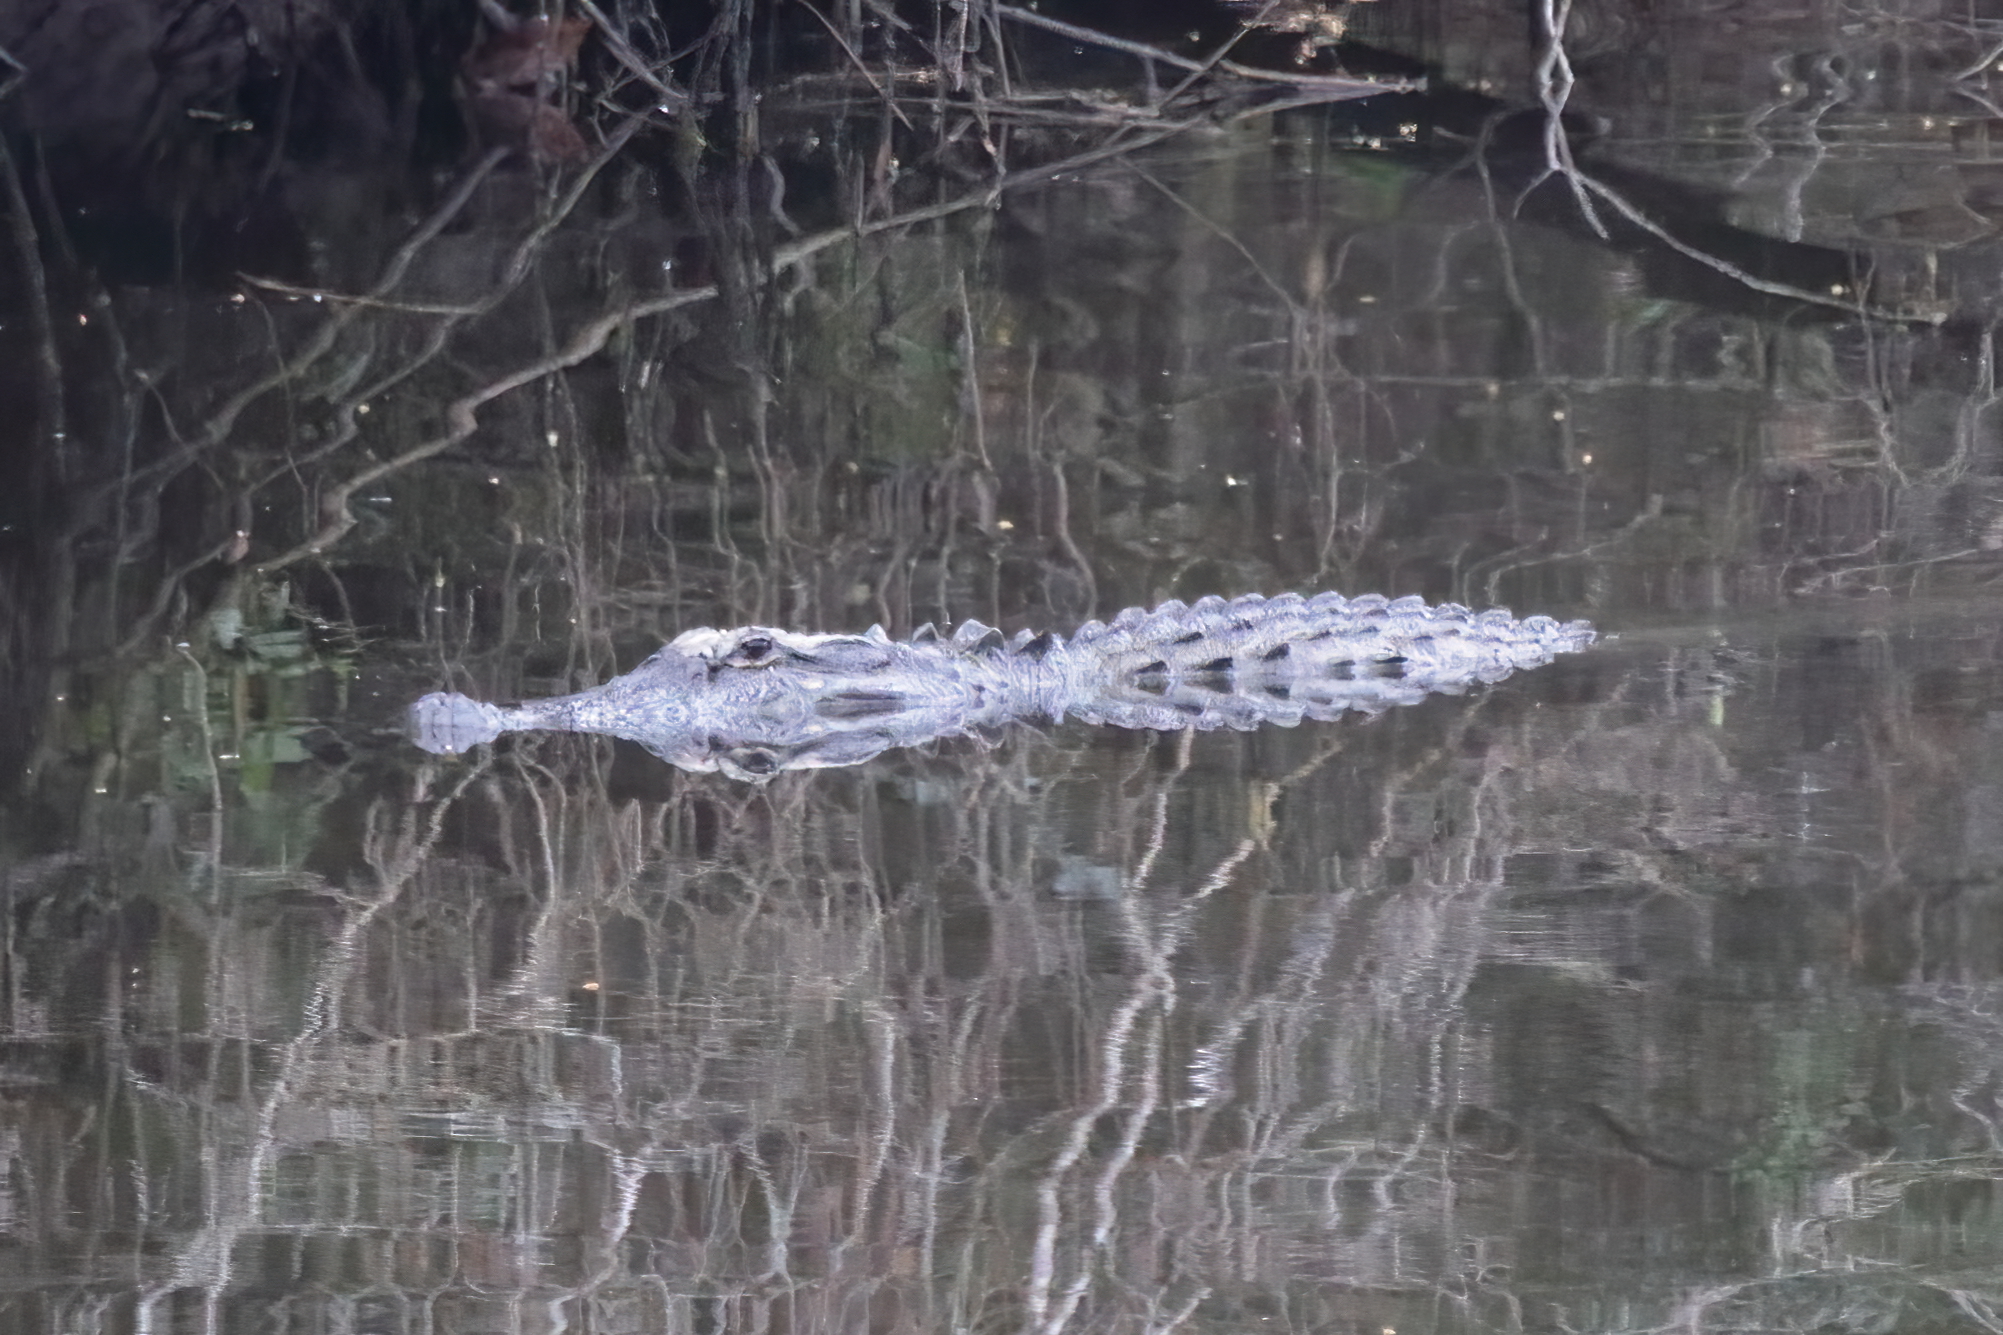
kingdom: Animalia
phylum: Chordata
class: Crocodylia
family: Alligatoridae
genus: Alligator
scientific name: Alligator mississippiensis
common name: American alligator
